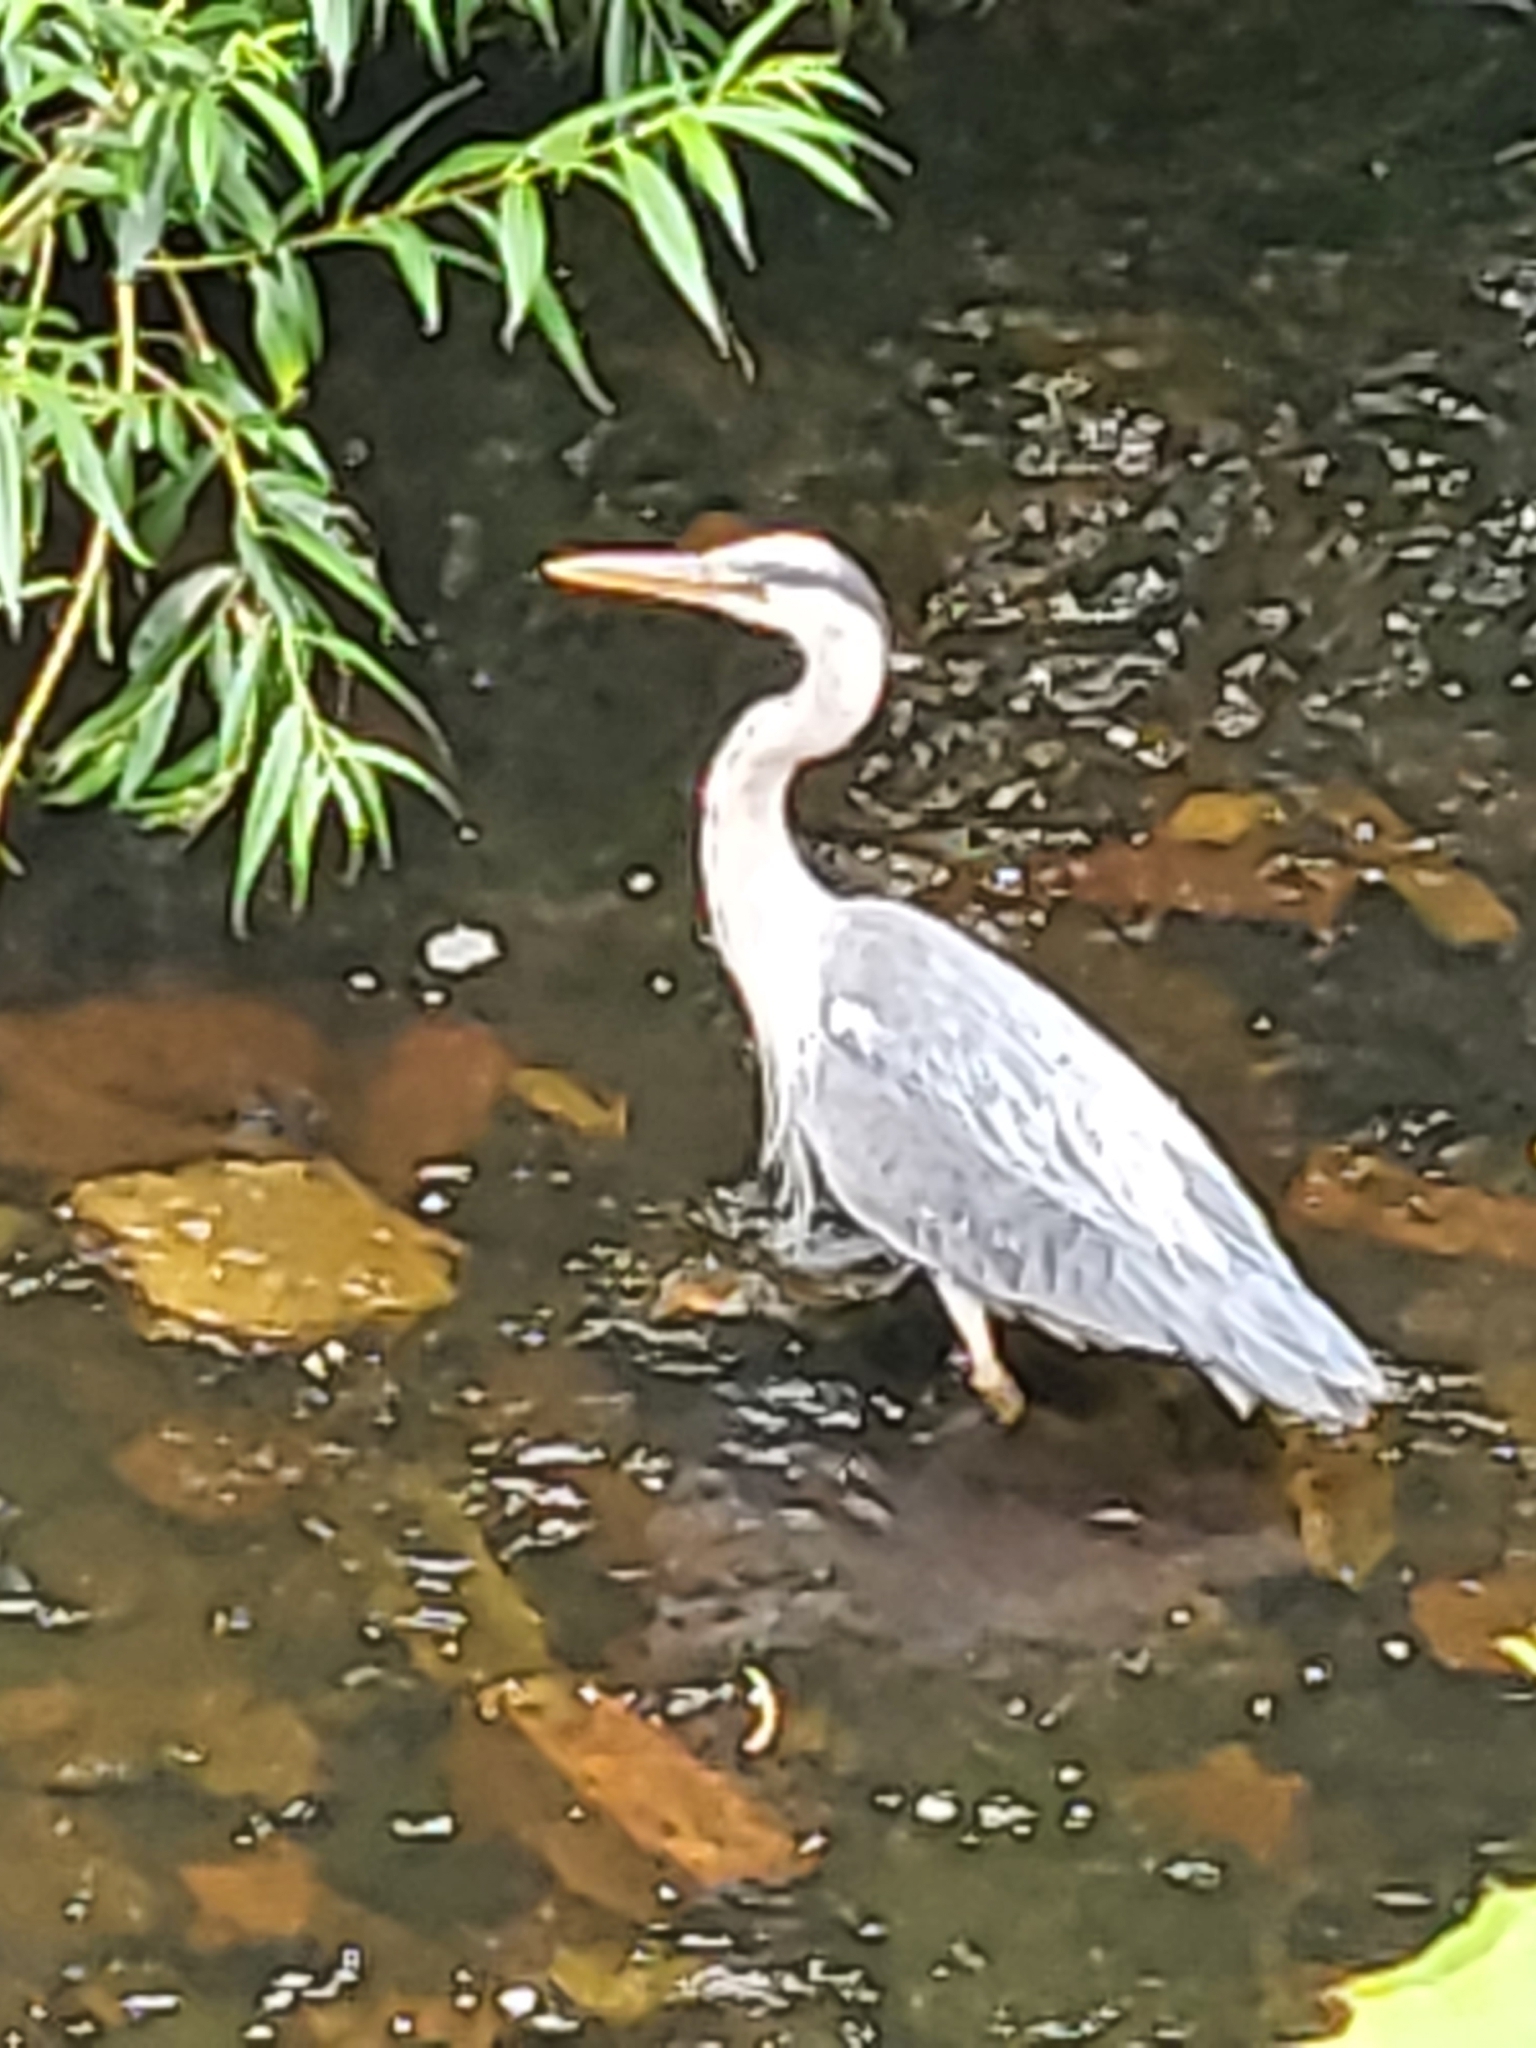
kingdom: Animalia
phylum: Chordata
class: Aves
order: Pelecaniformes
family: Ardeidae
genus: Ardea
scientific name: Ardea cinerea
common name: Grey heron
